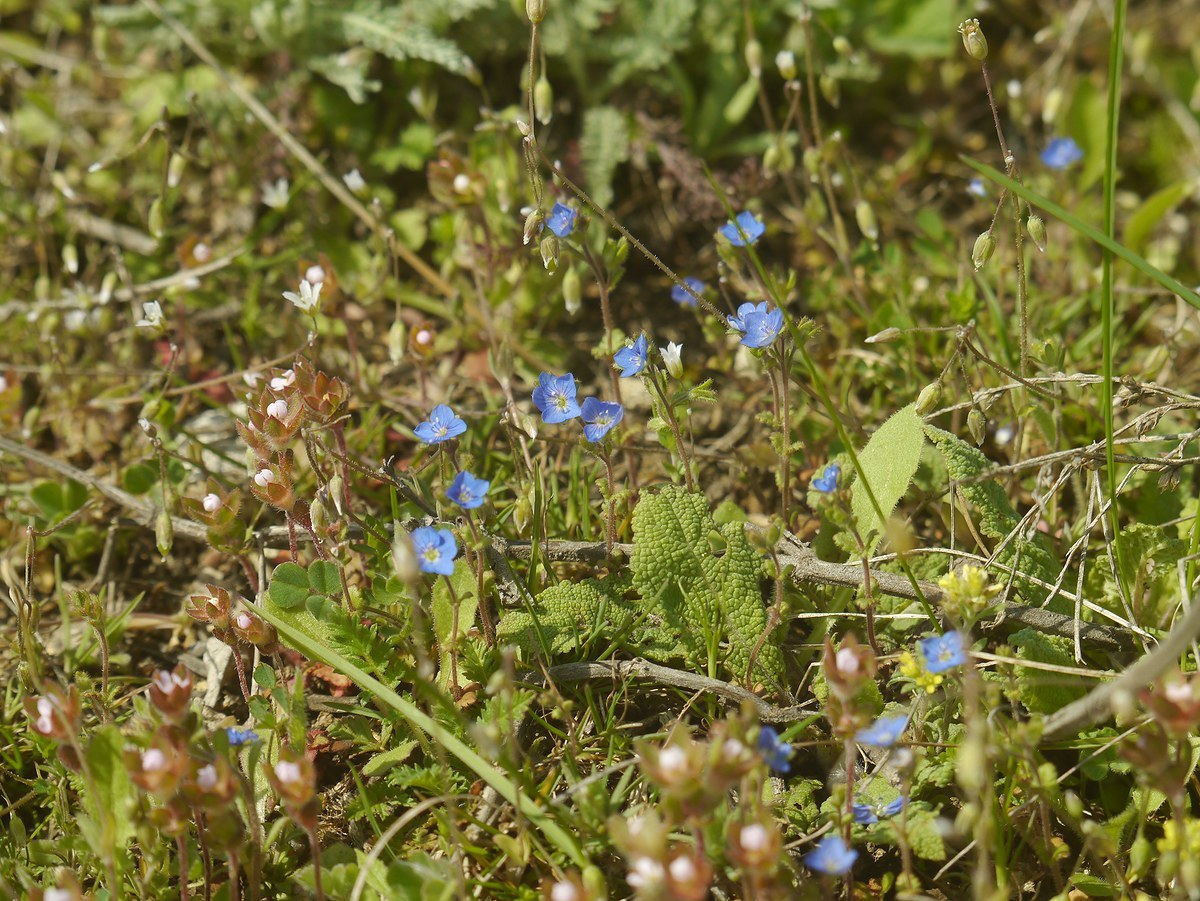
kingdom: Plantae
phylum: Tracheophyta
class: Magnoliopsida
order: Lamiales
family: Plantaginaceae
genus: Veronica
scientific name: Veronica praecox
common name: Breckland speedwell
